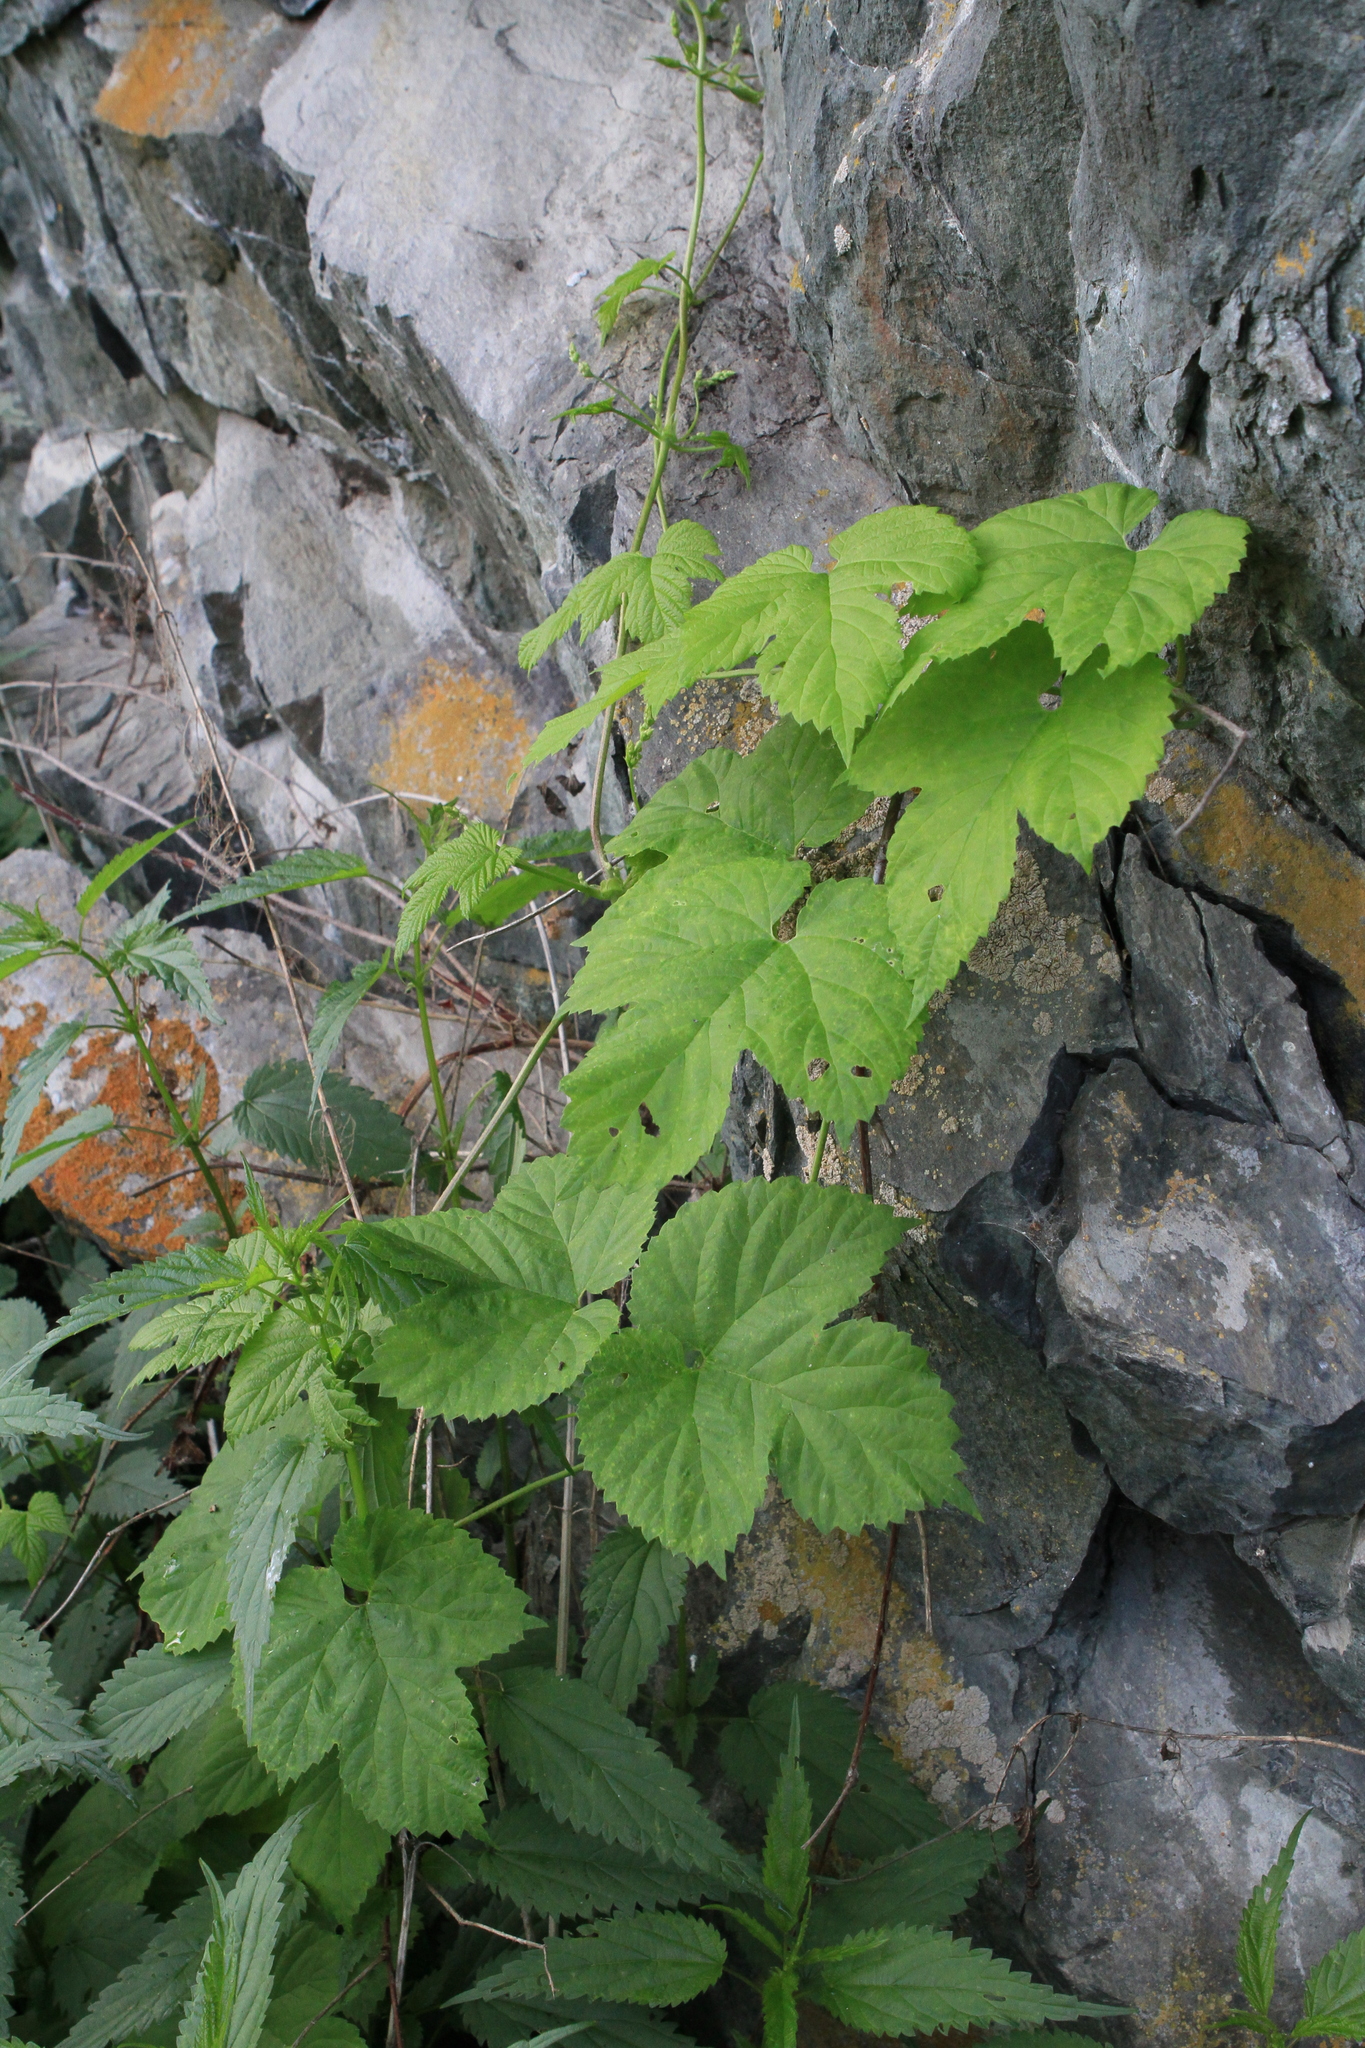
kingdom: Plantae
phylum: Tracheophyta
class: Magnoliopsida
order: Rosales
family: Cannabaceae
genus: Humulus
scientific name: Humulus lupulus
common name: Hop
